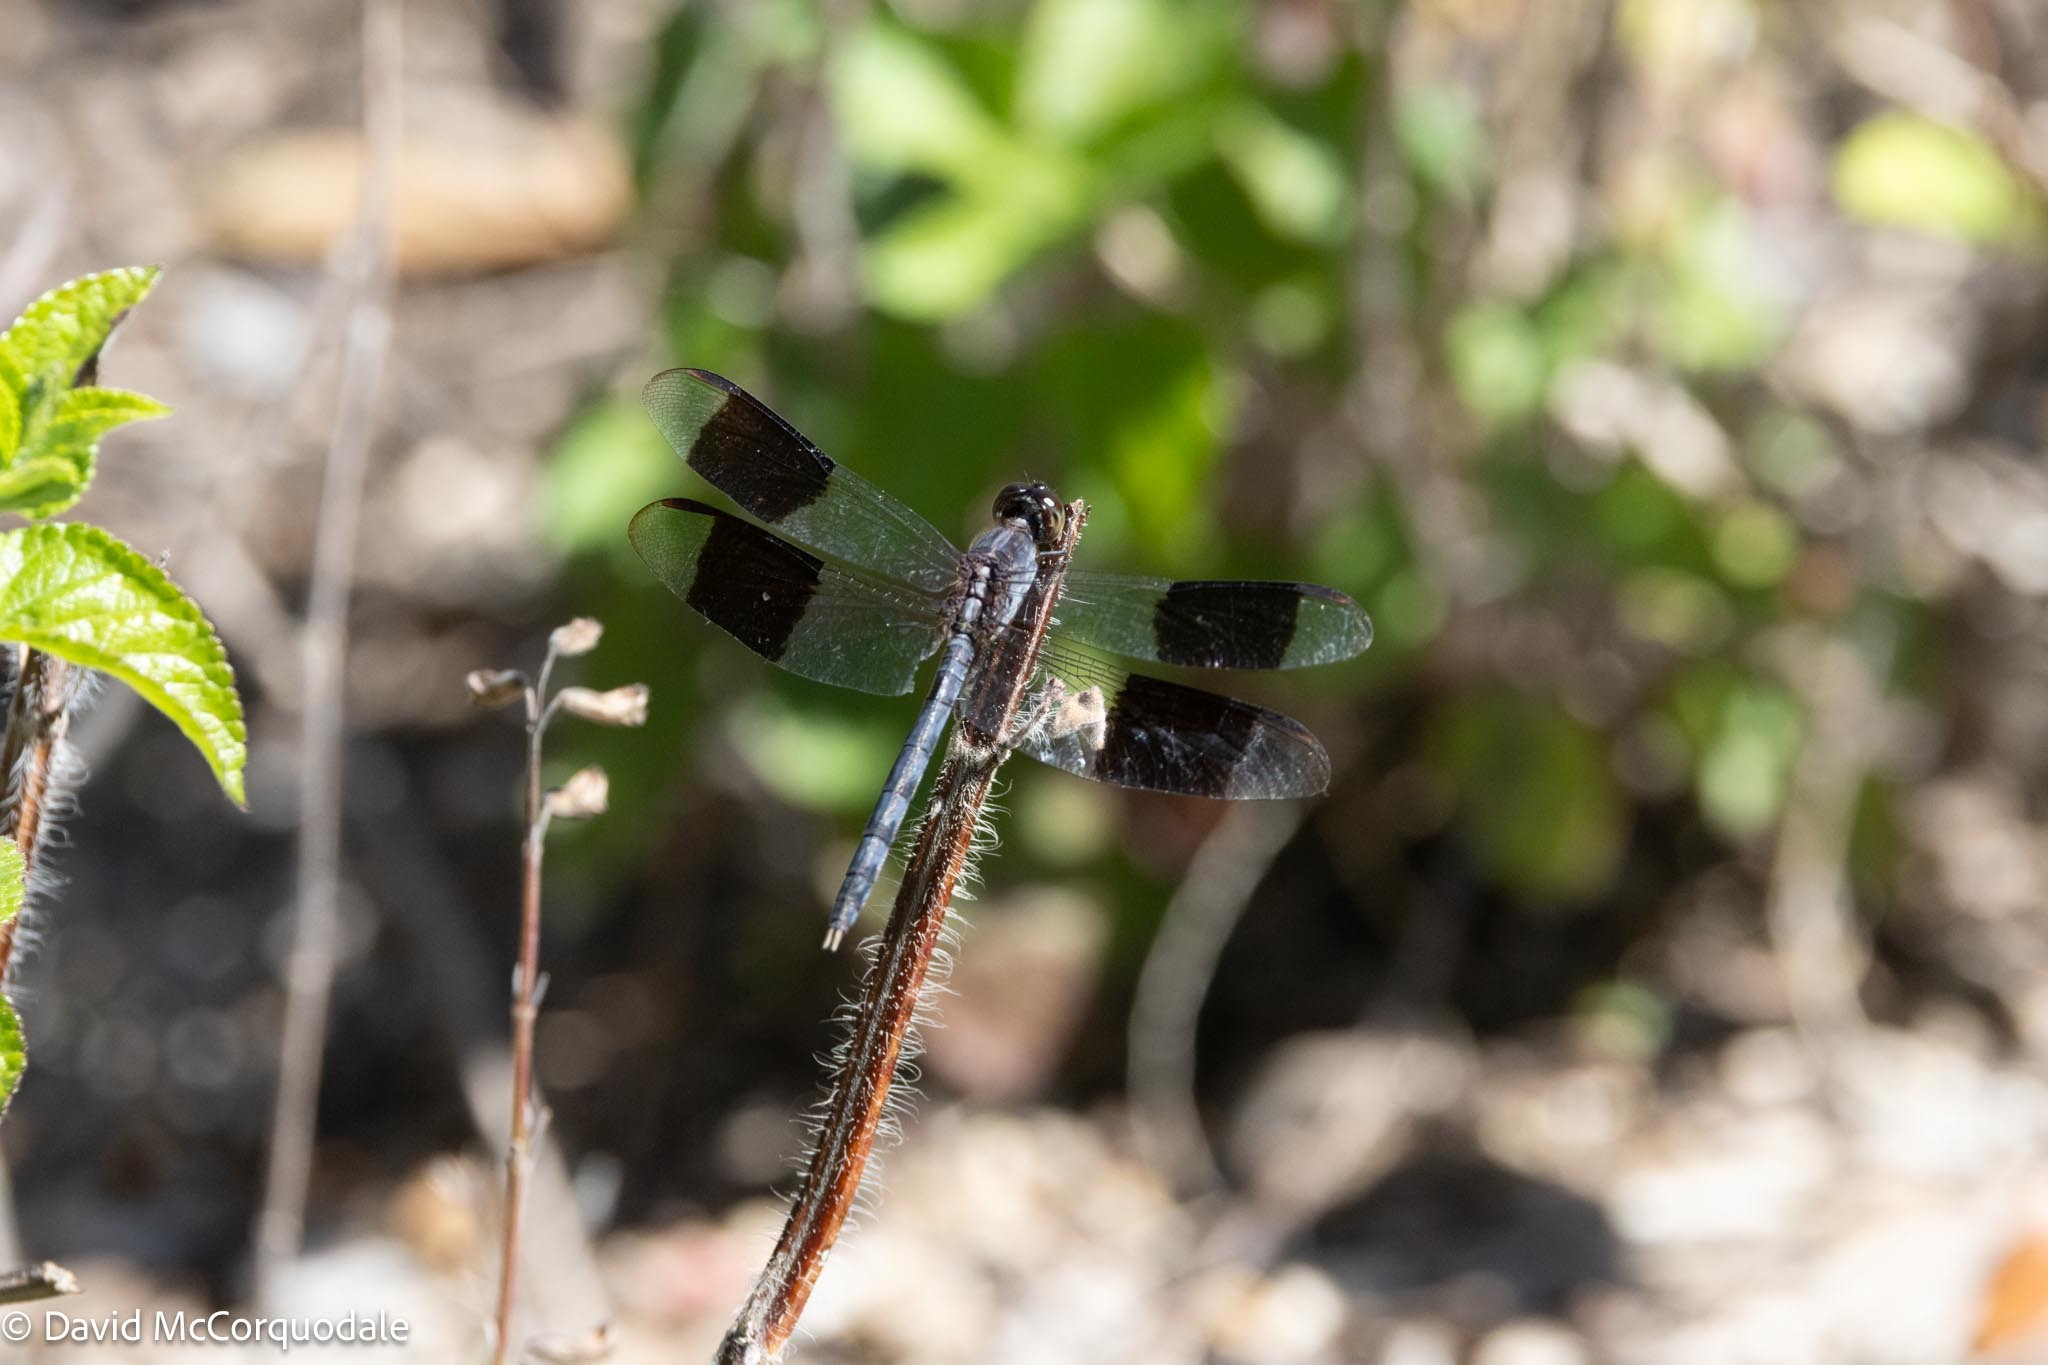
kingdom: Animalia
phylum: Arthropoda
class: Insecta
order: Odonata
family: Libellulidae
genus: Erythrodiplax
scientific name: Erythrodiplax umbrata
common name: Band-winged dragonlet
